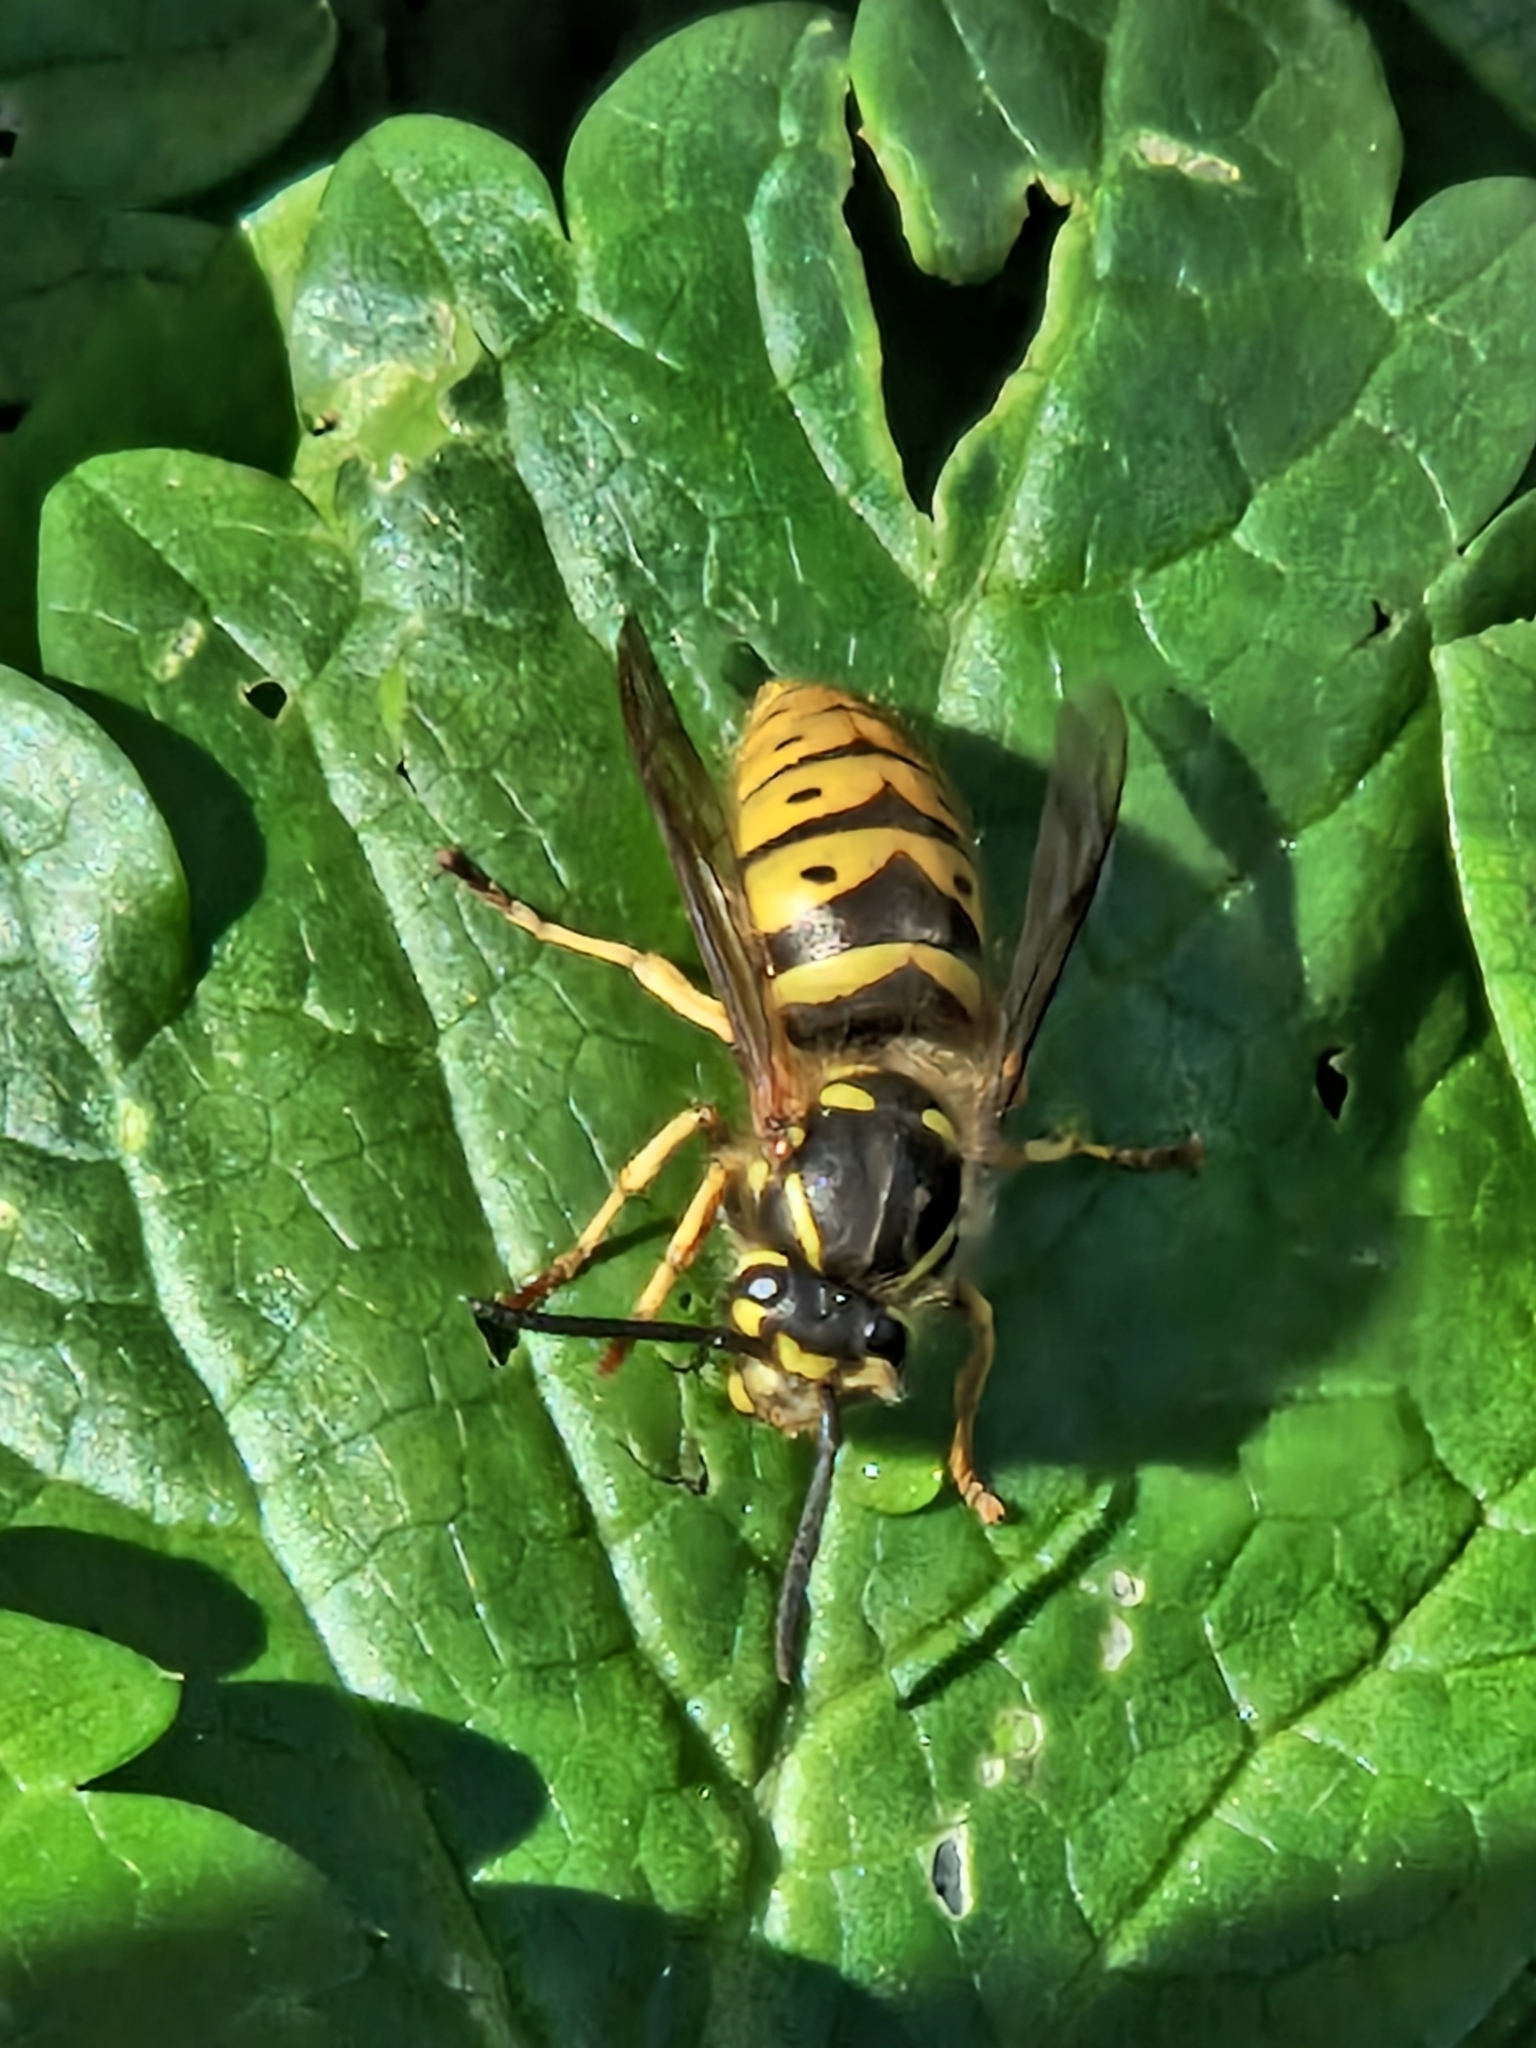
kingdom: Animalia
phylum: Arthropoda
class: Insecta
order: Hymenoptera
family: Vespidae
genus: Vespula
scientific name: Vespula vulgaris
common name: Common wasp
